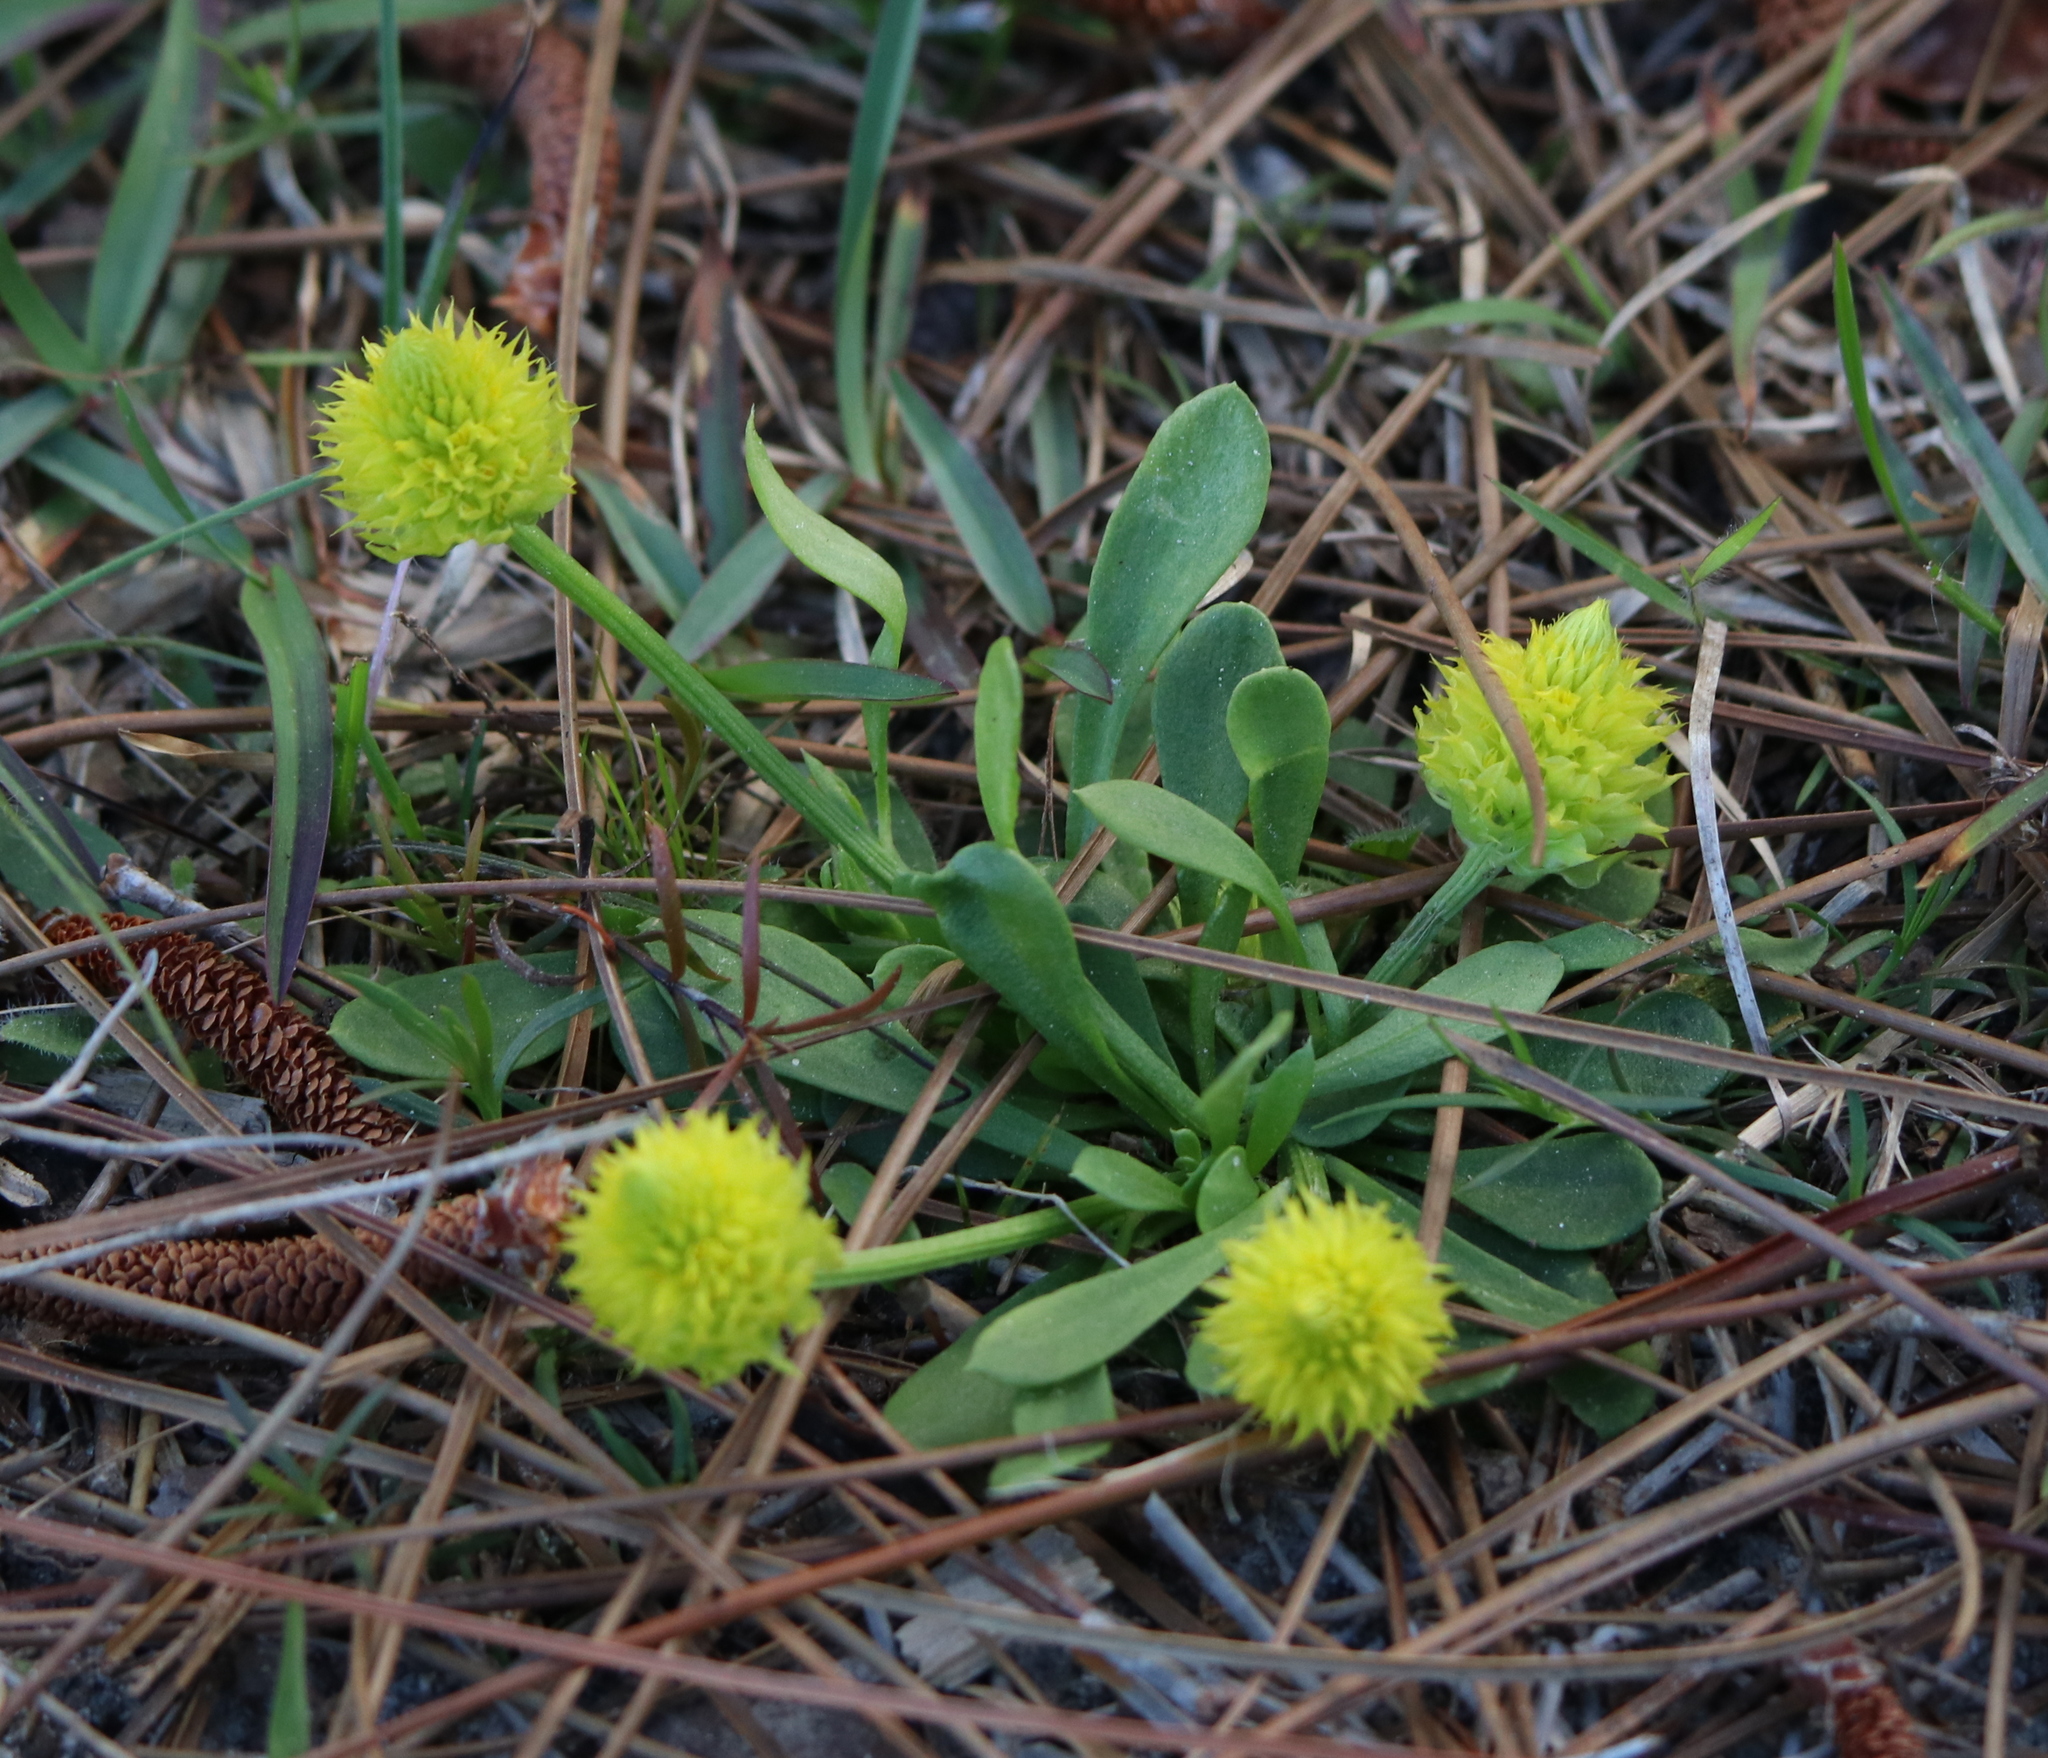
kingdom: Plantae
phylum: Tracheophyta
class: Magnoliopsida
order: Fabales
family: Polygalaceae
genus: Polygala
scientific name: Polygala nana
